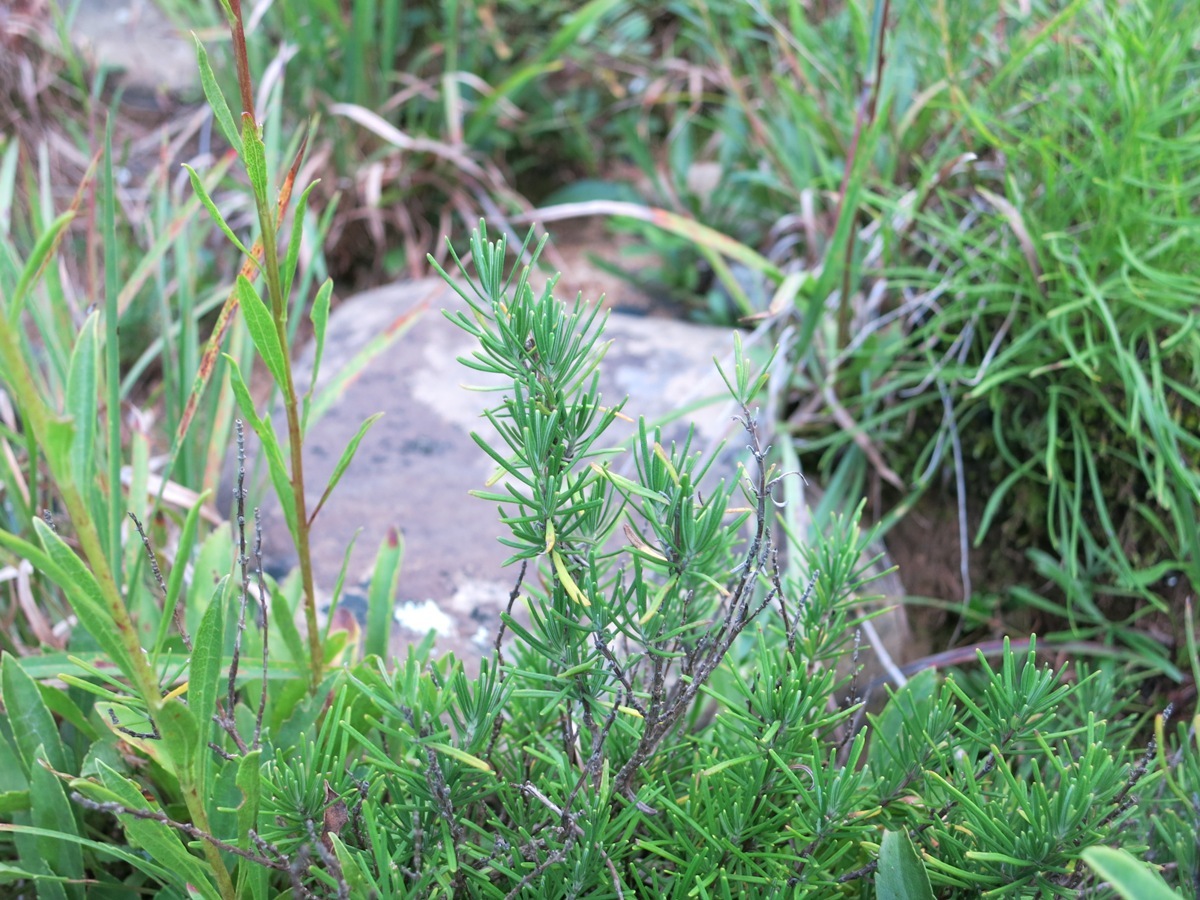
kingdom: Plantae
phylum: Tracheophyta
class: Magnoliopsida
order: Lamiales
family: Lamiaceae
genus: Conradina
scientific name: Conradina verticillata
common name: Cumberland-rosemary
